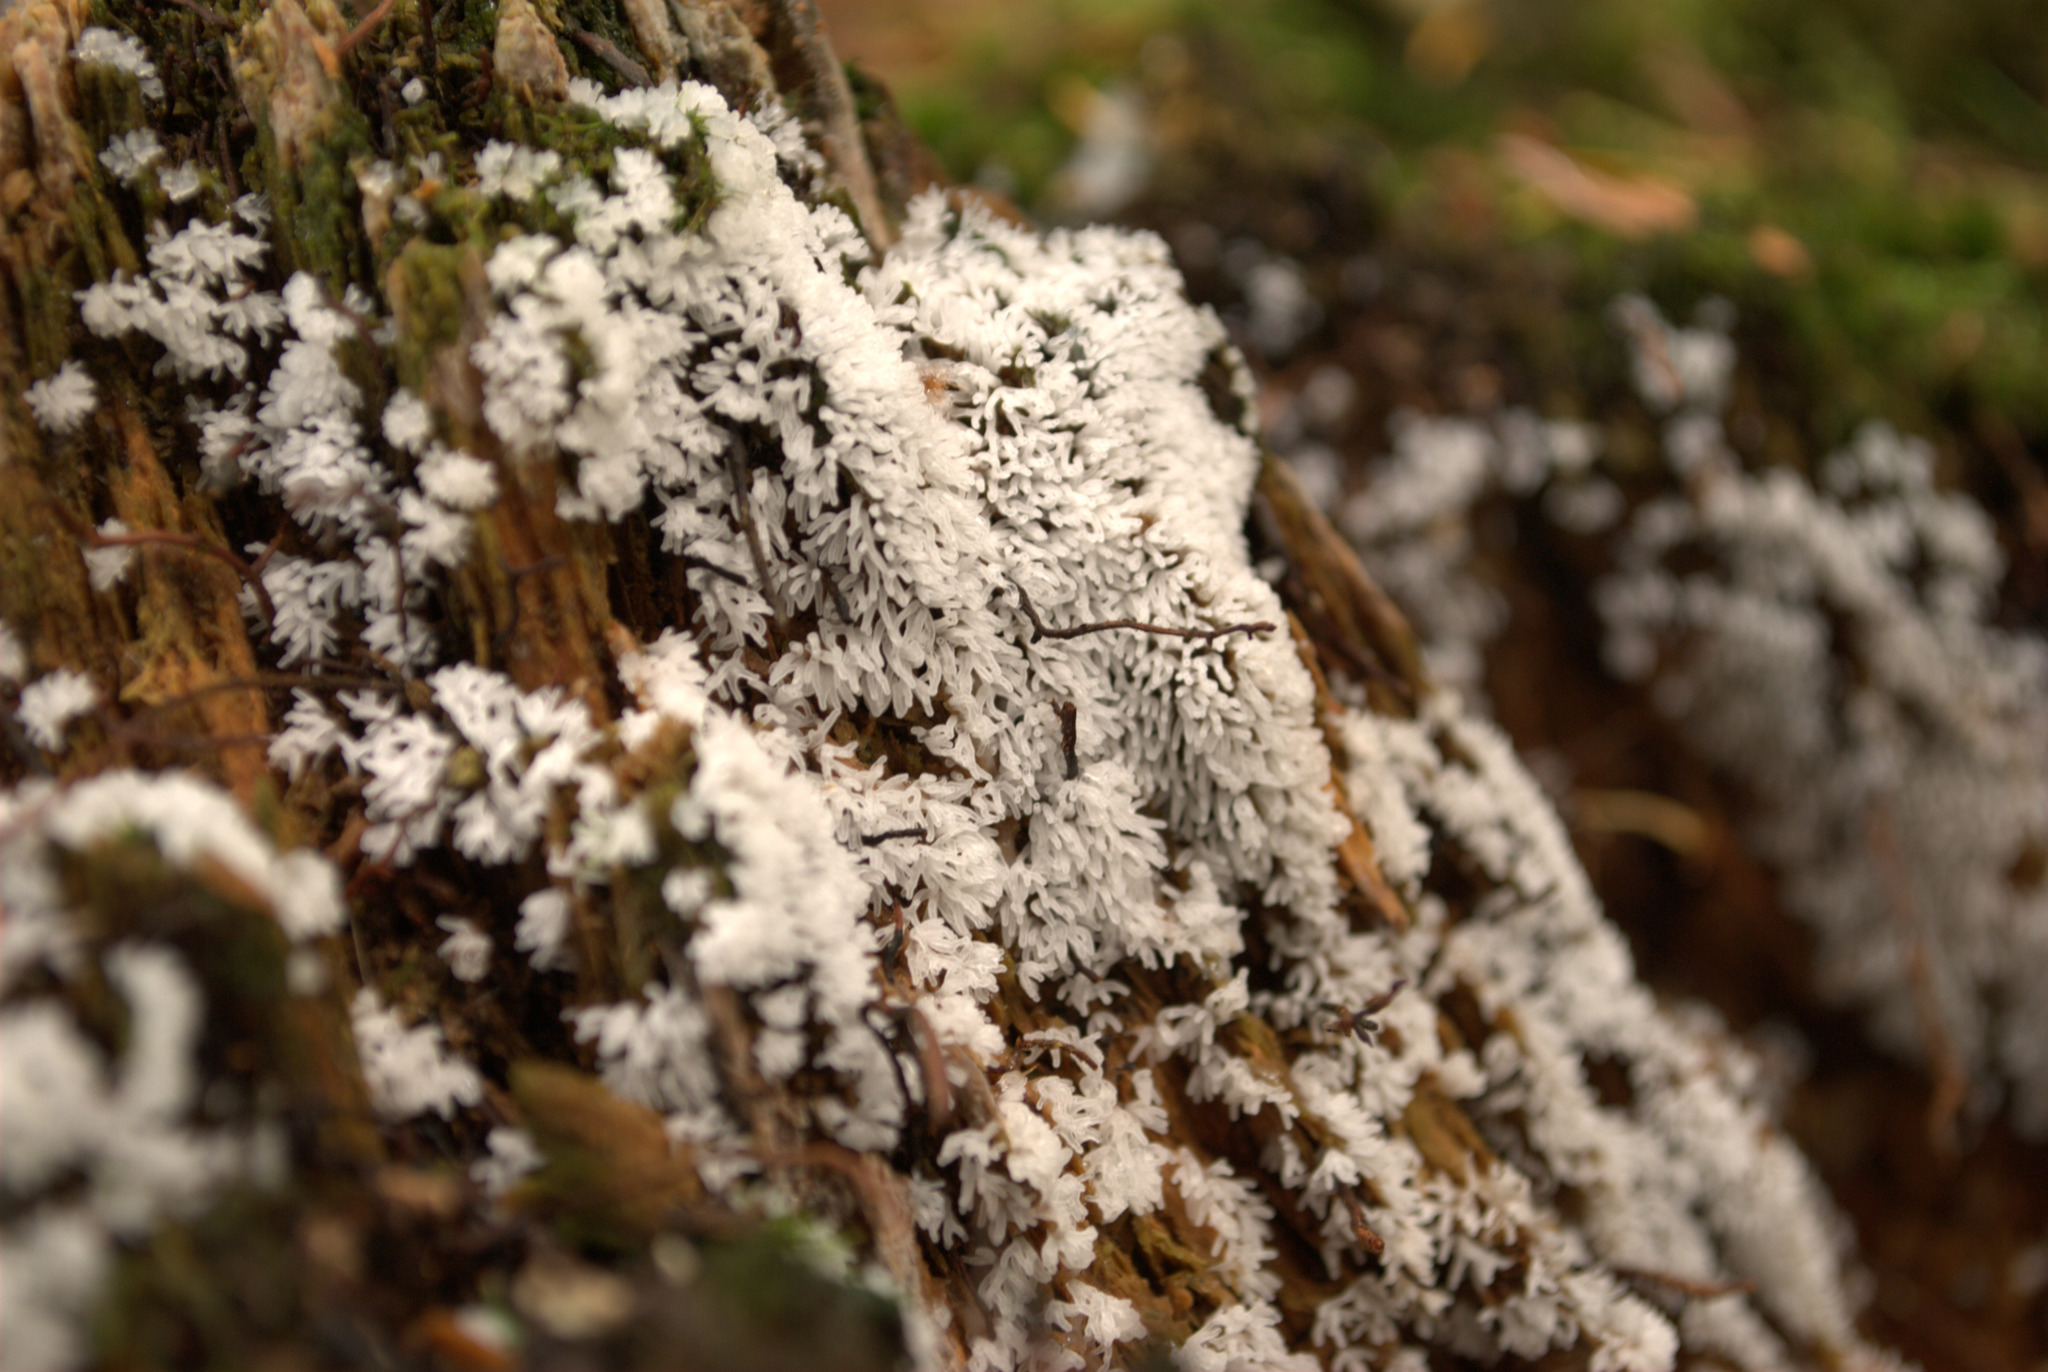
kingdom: Protozoa
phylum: Mycetozoa
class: Protosteliomycetes
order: Ceratiomyxales
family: Ceratiomyxaceae
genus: Ceratiomyxa
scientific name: Ceratiomyxa fruticulosa
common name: Honeycomb coral slime mold
